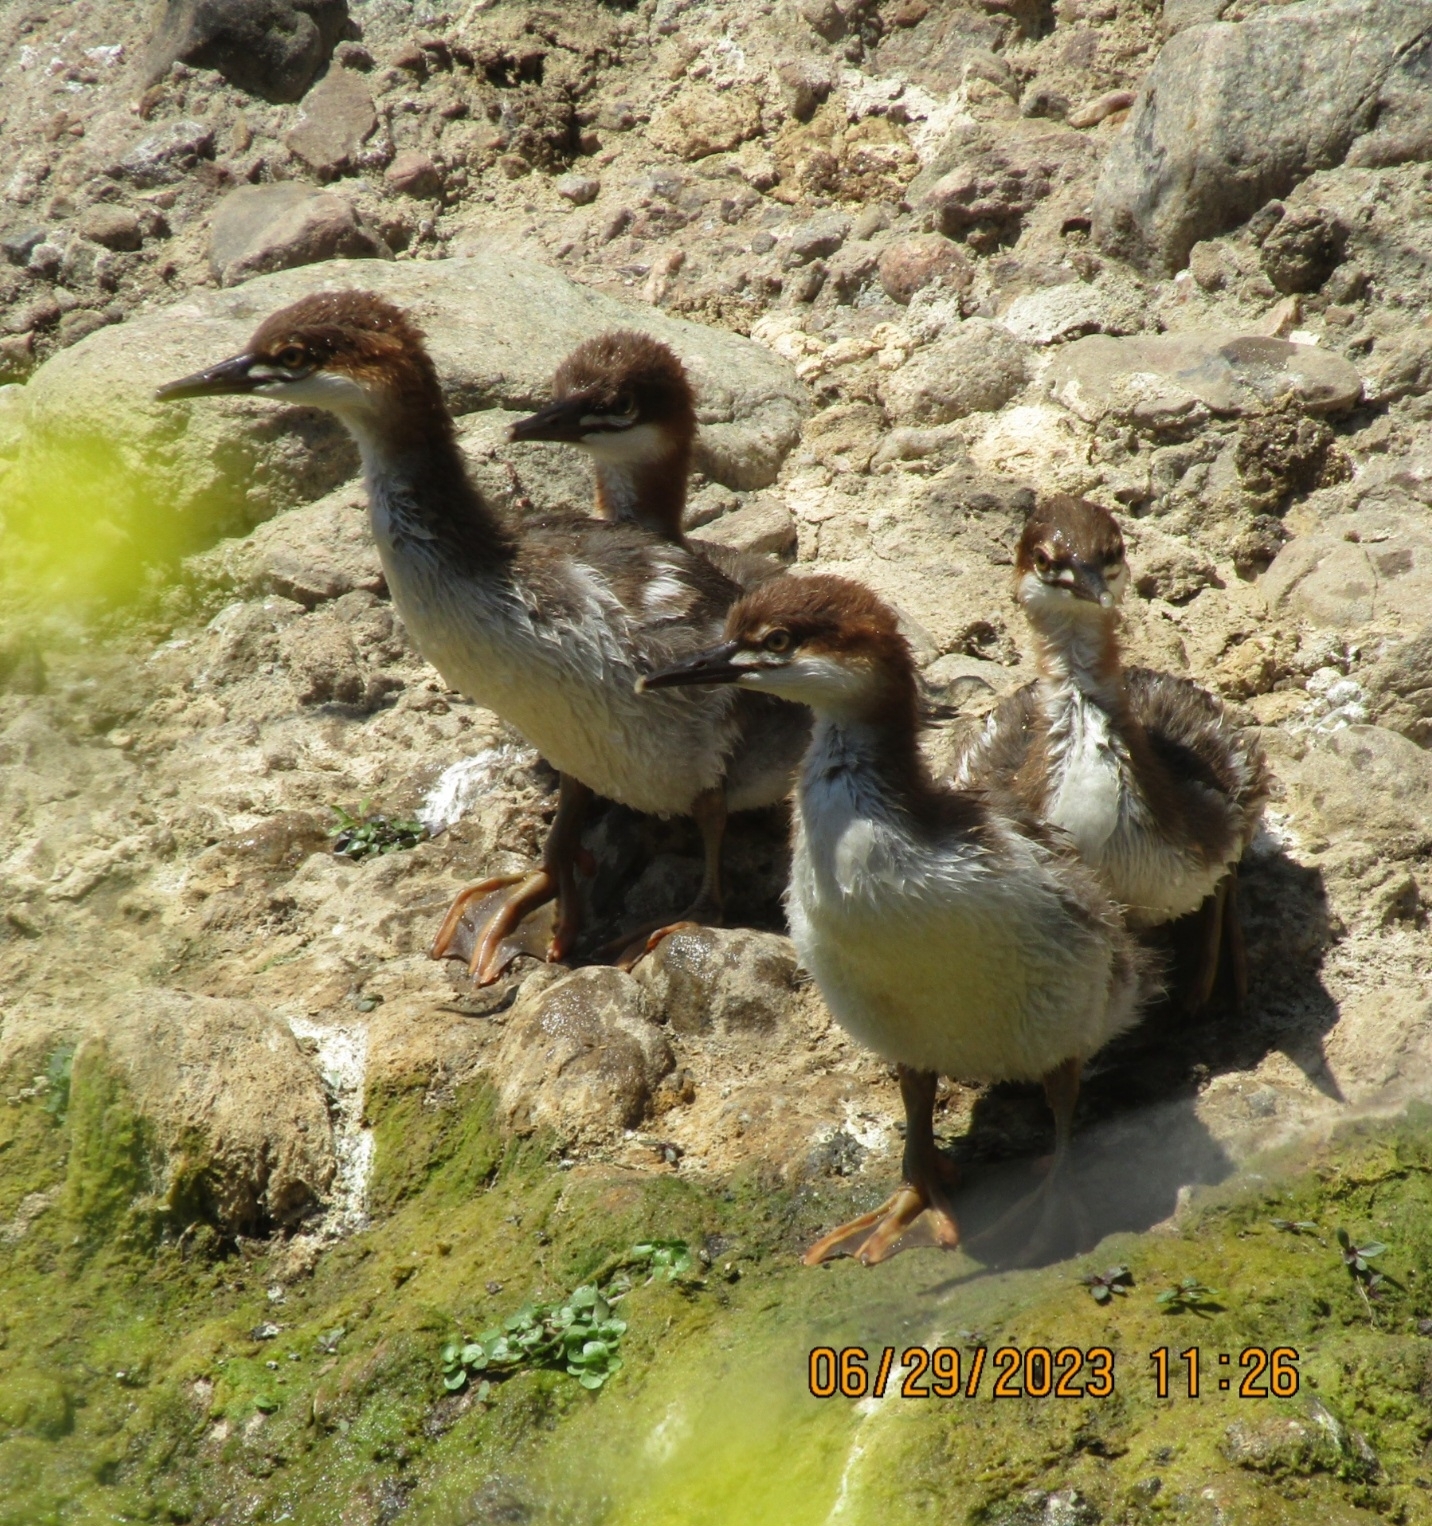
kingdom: Animalia
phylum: Chordata
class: Aves
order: Anseriformes
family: Anatidae
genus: Mergus
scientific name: Mergus merganser
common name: Common merganser
